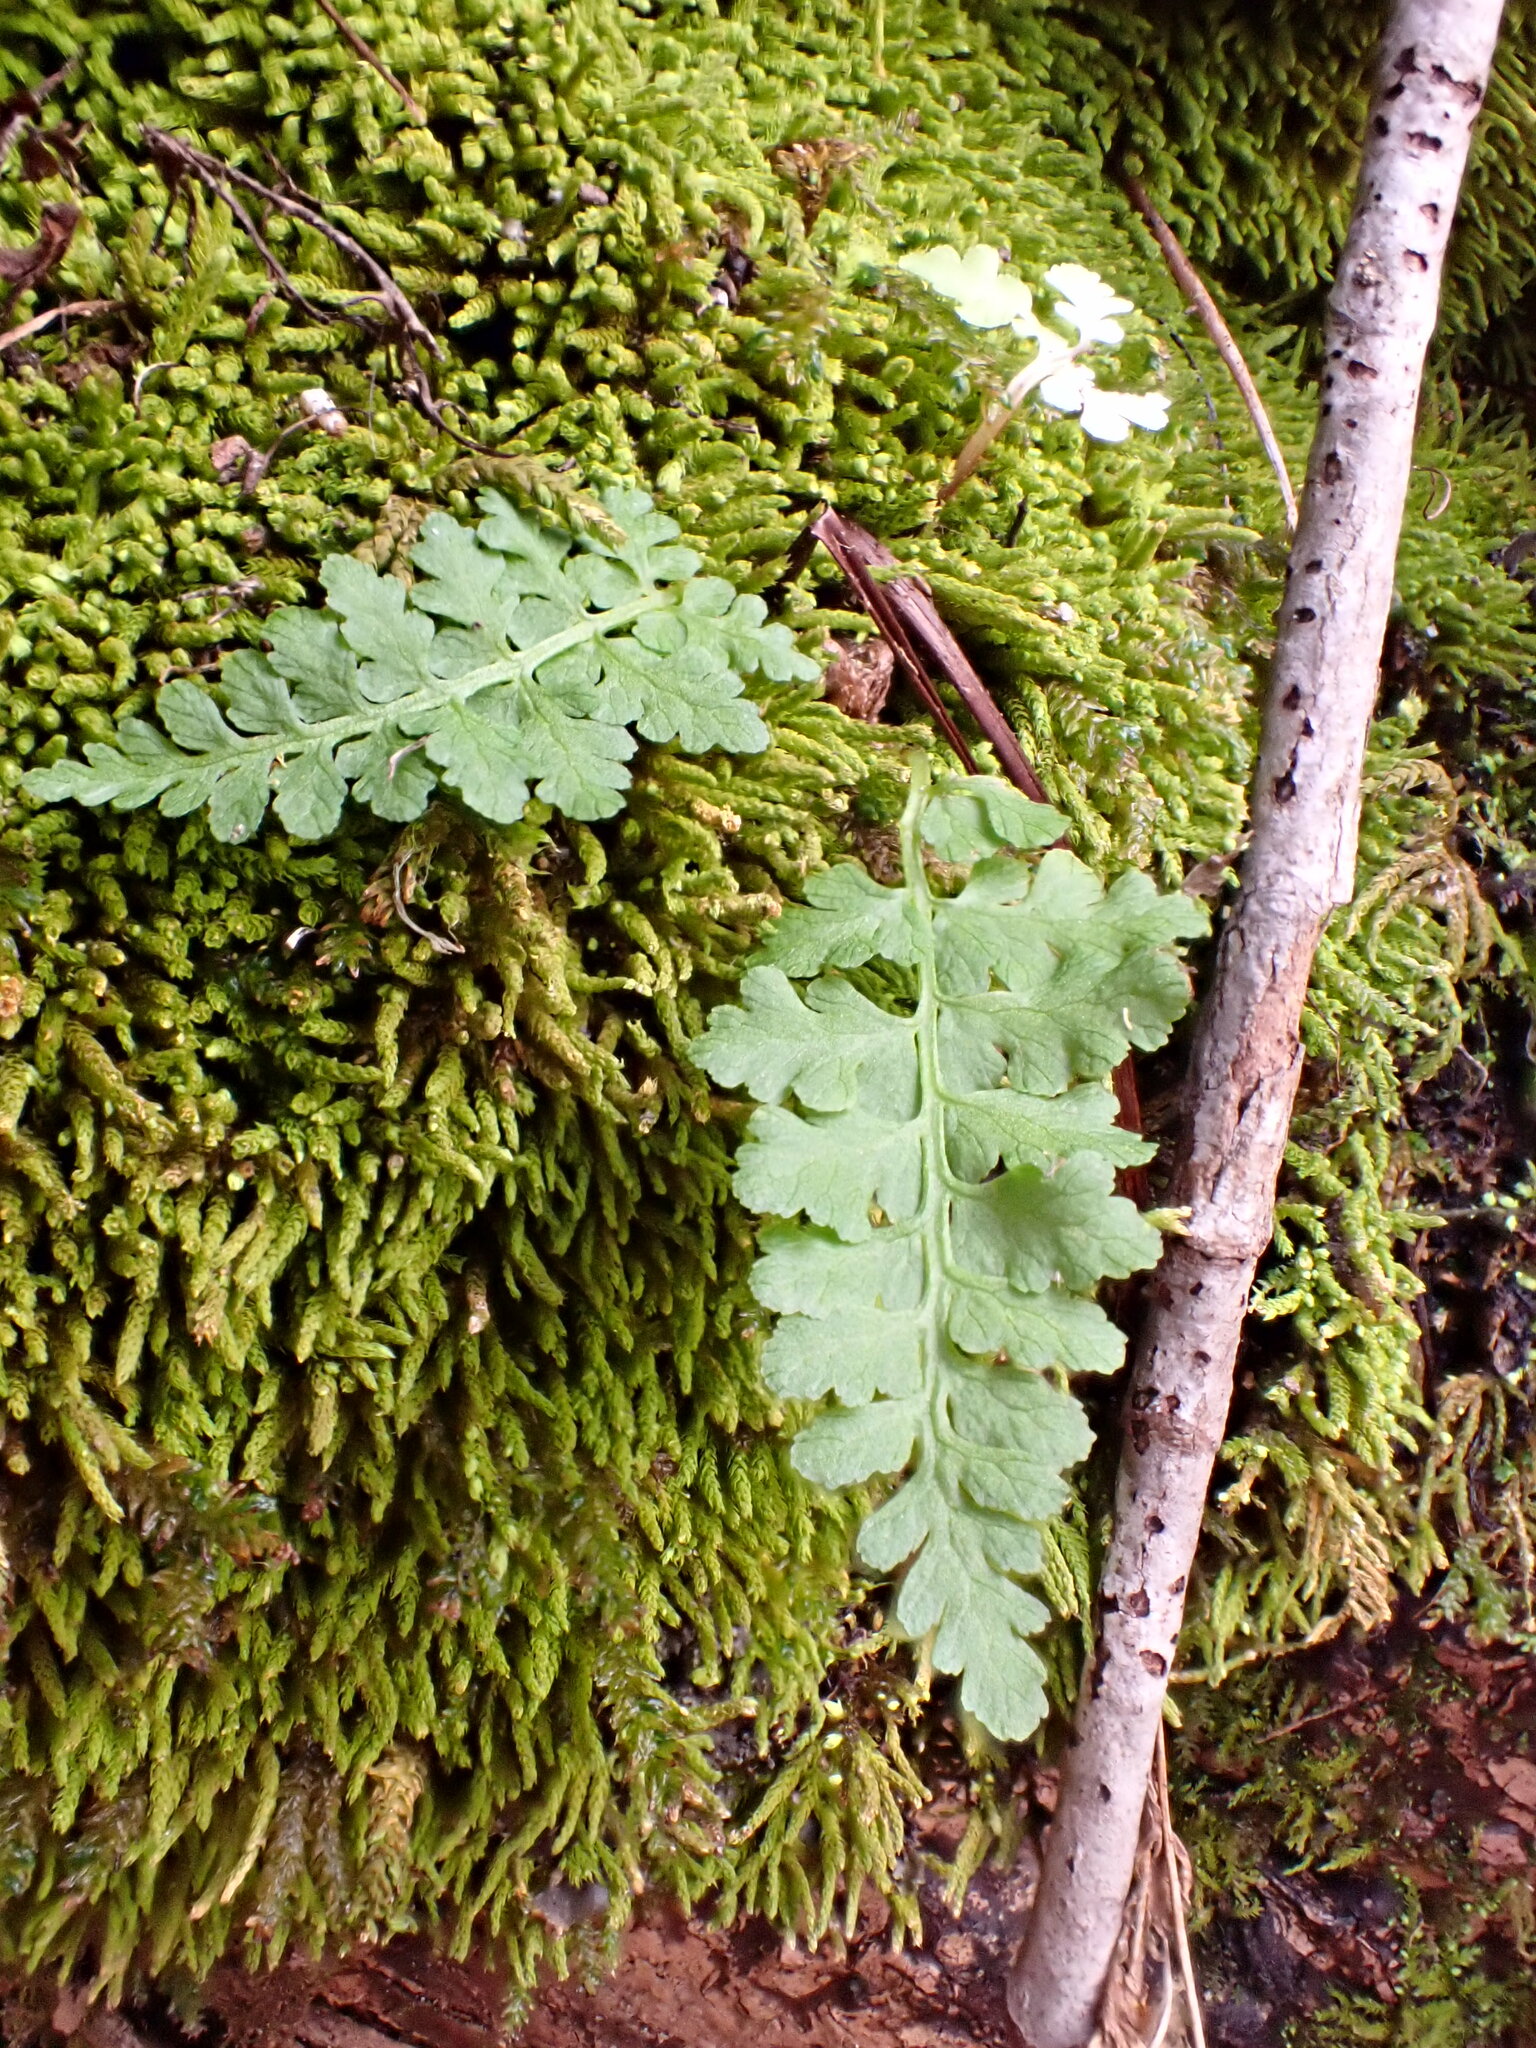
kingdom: Plantae
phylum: Tracheophyta
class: Polypodiopsida
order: Polypodiales
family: Dryopteridaceae
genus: Dryopteris
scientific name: Dryopteris intermedia
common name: Evergreen wood fern
